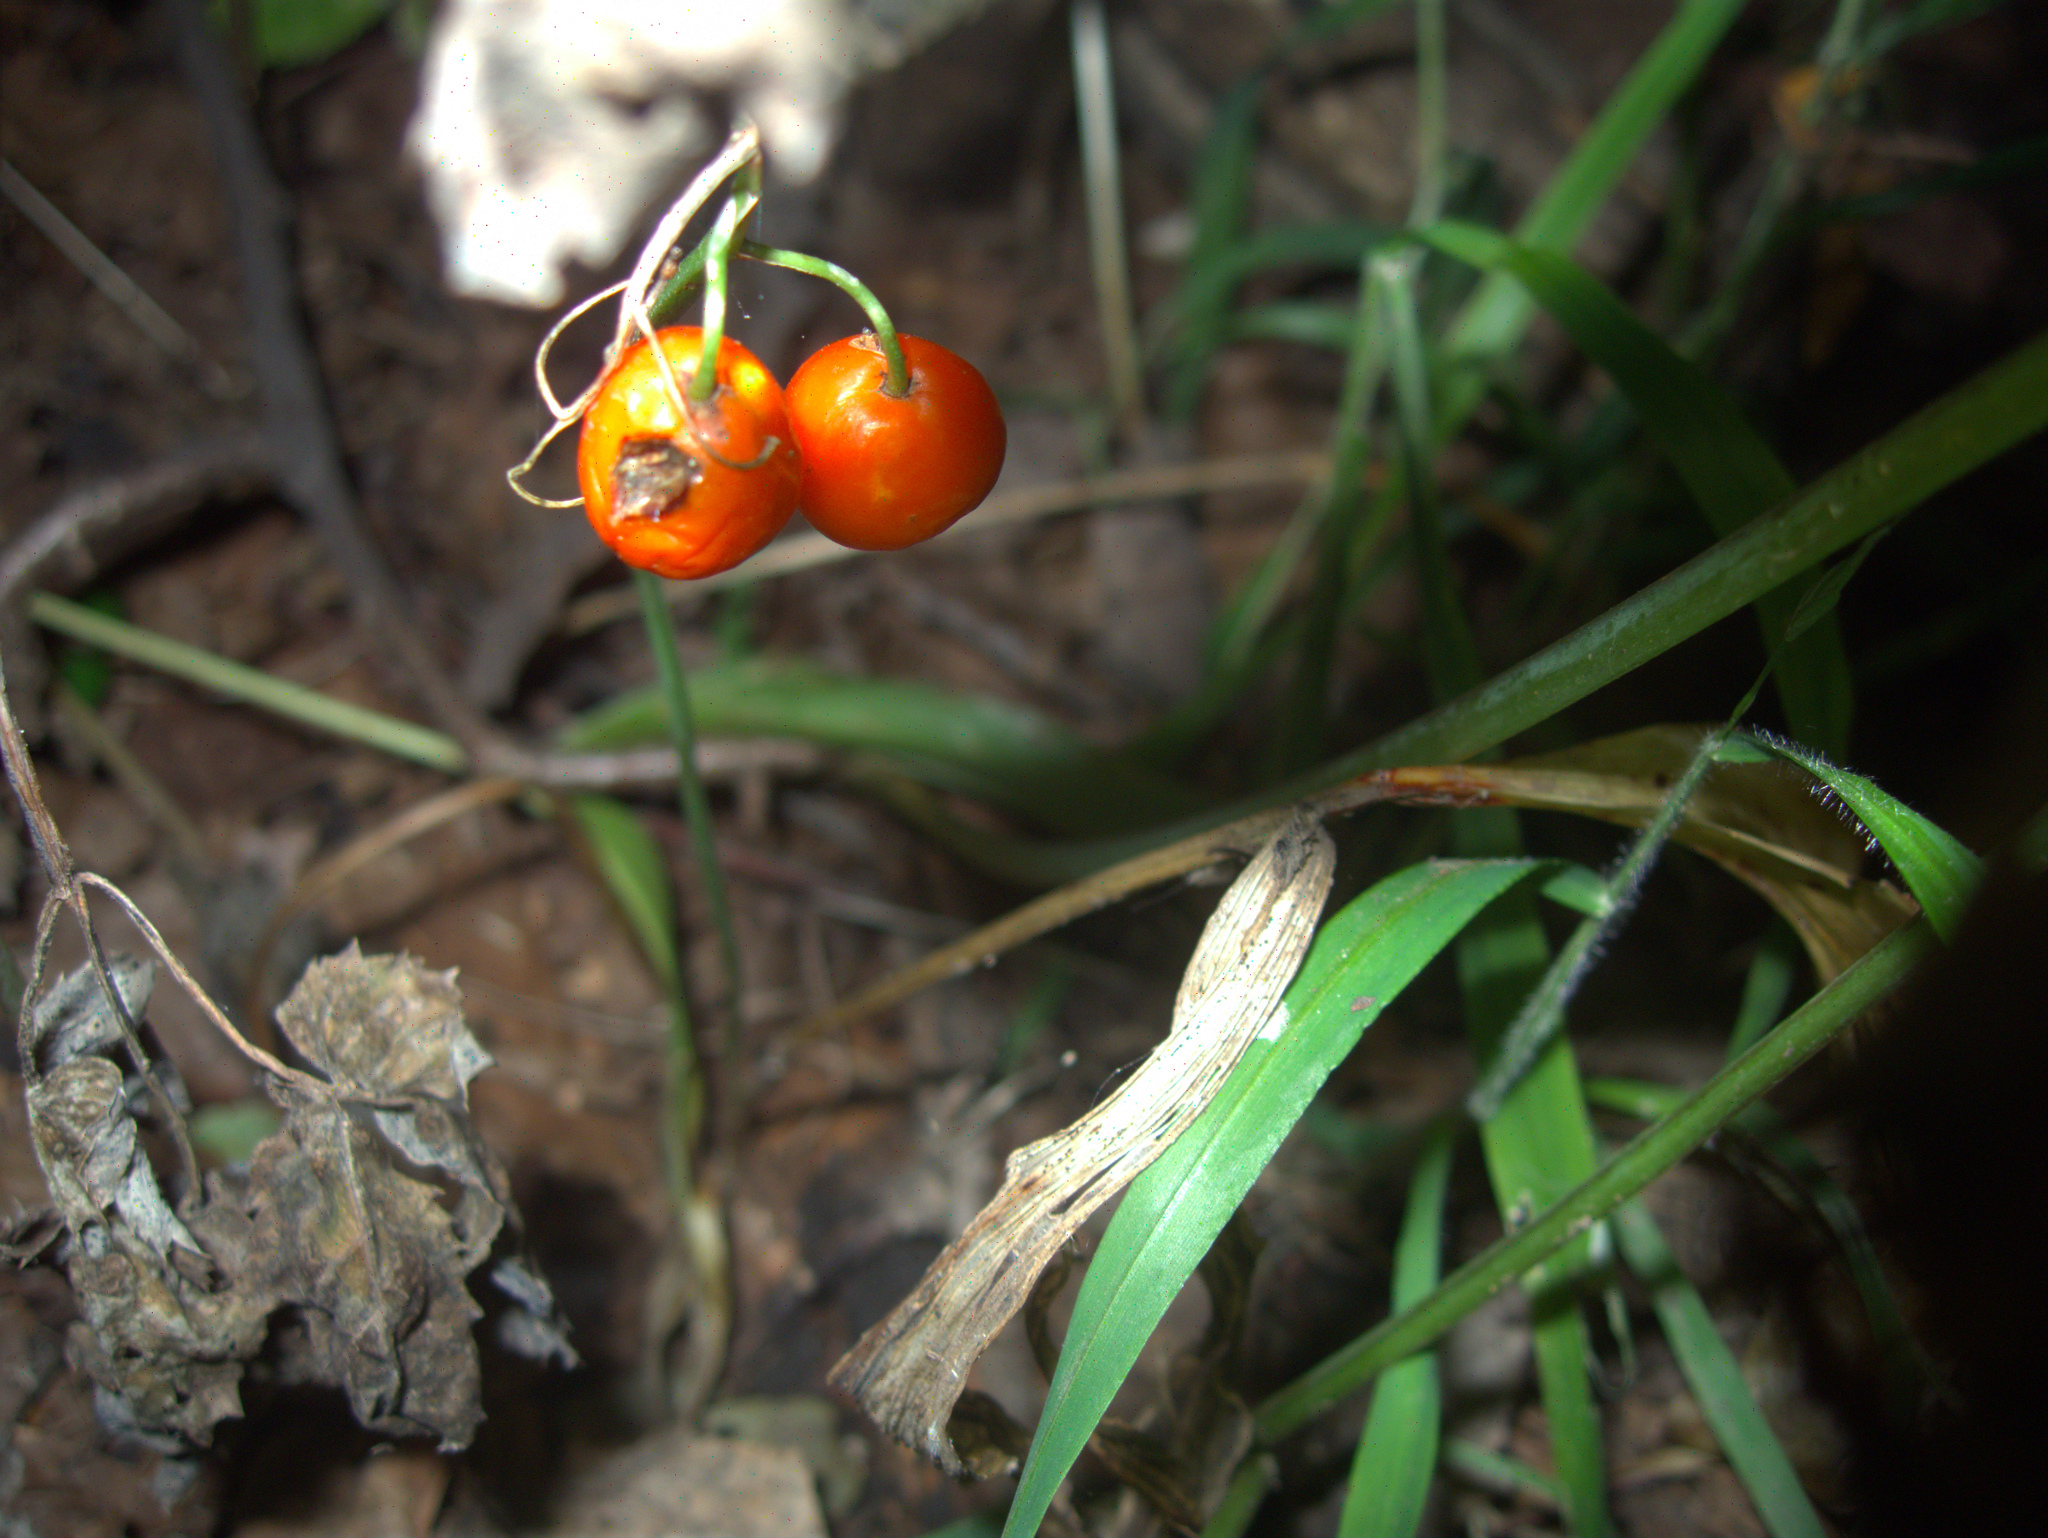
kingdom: Plantae
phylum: Tracheophyta
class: Liliopsida
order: Asparagales
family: Asparagaceae
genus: Convallaria
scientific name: Convallaria majalis
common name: Lily-of-the-valley
